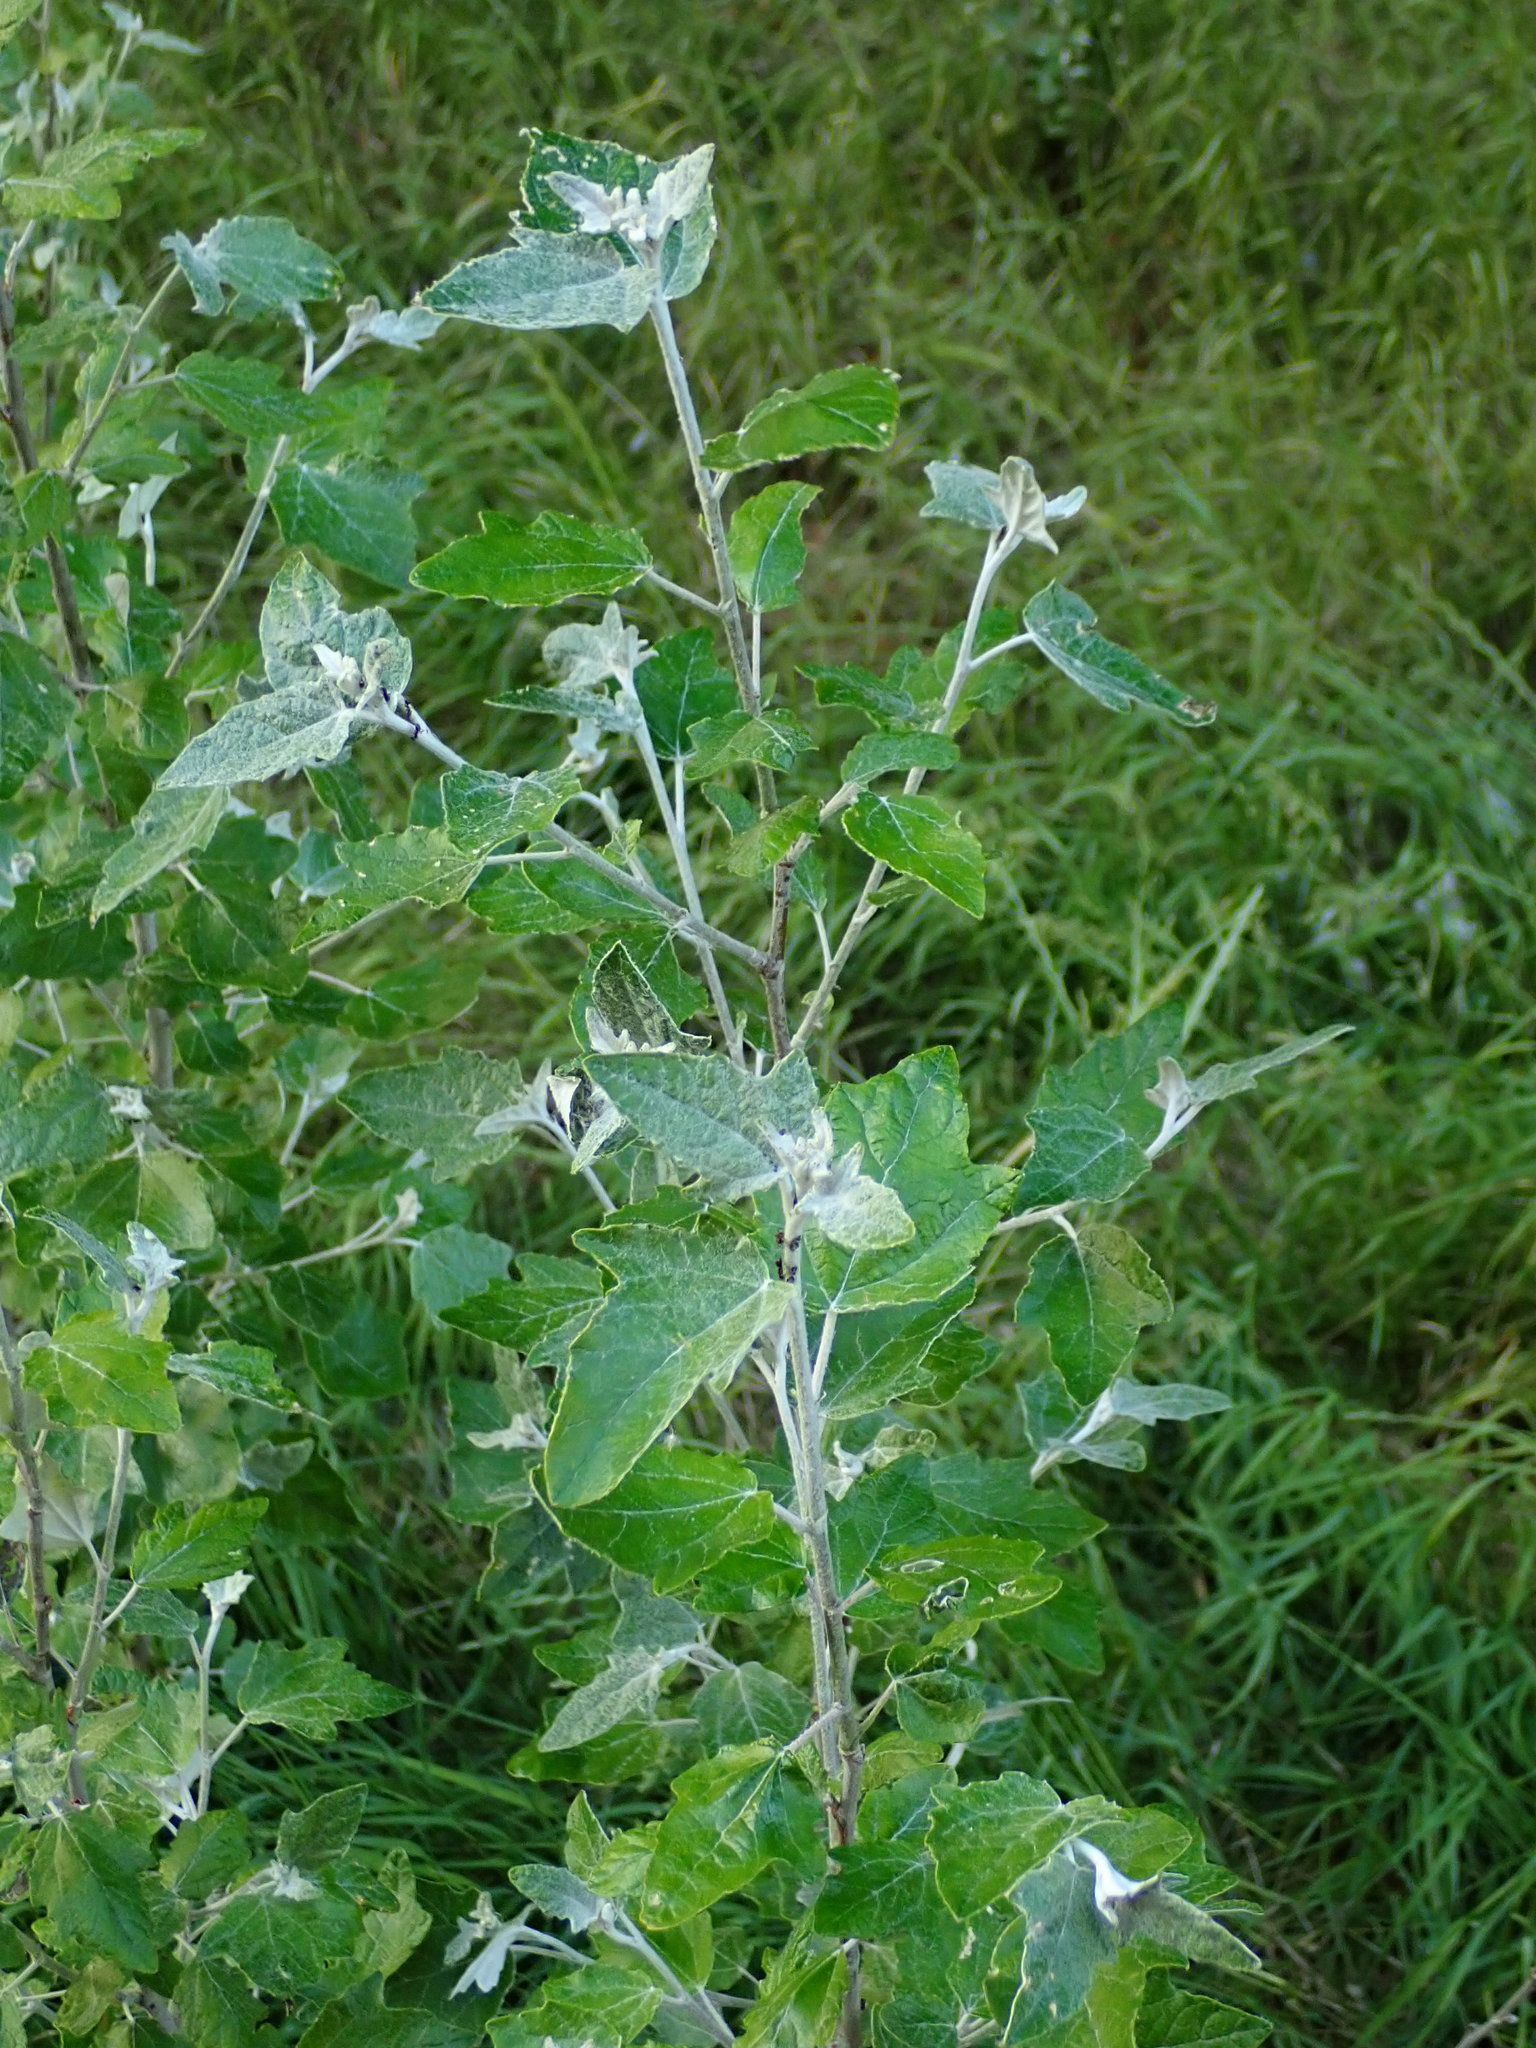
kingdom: Plantae
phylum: Tracheophyta
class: Magnoliopsida
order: Malpighiales
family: Salicaceae
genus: Populus
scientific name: Populus alba
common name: White poplar
